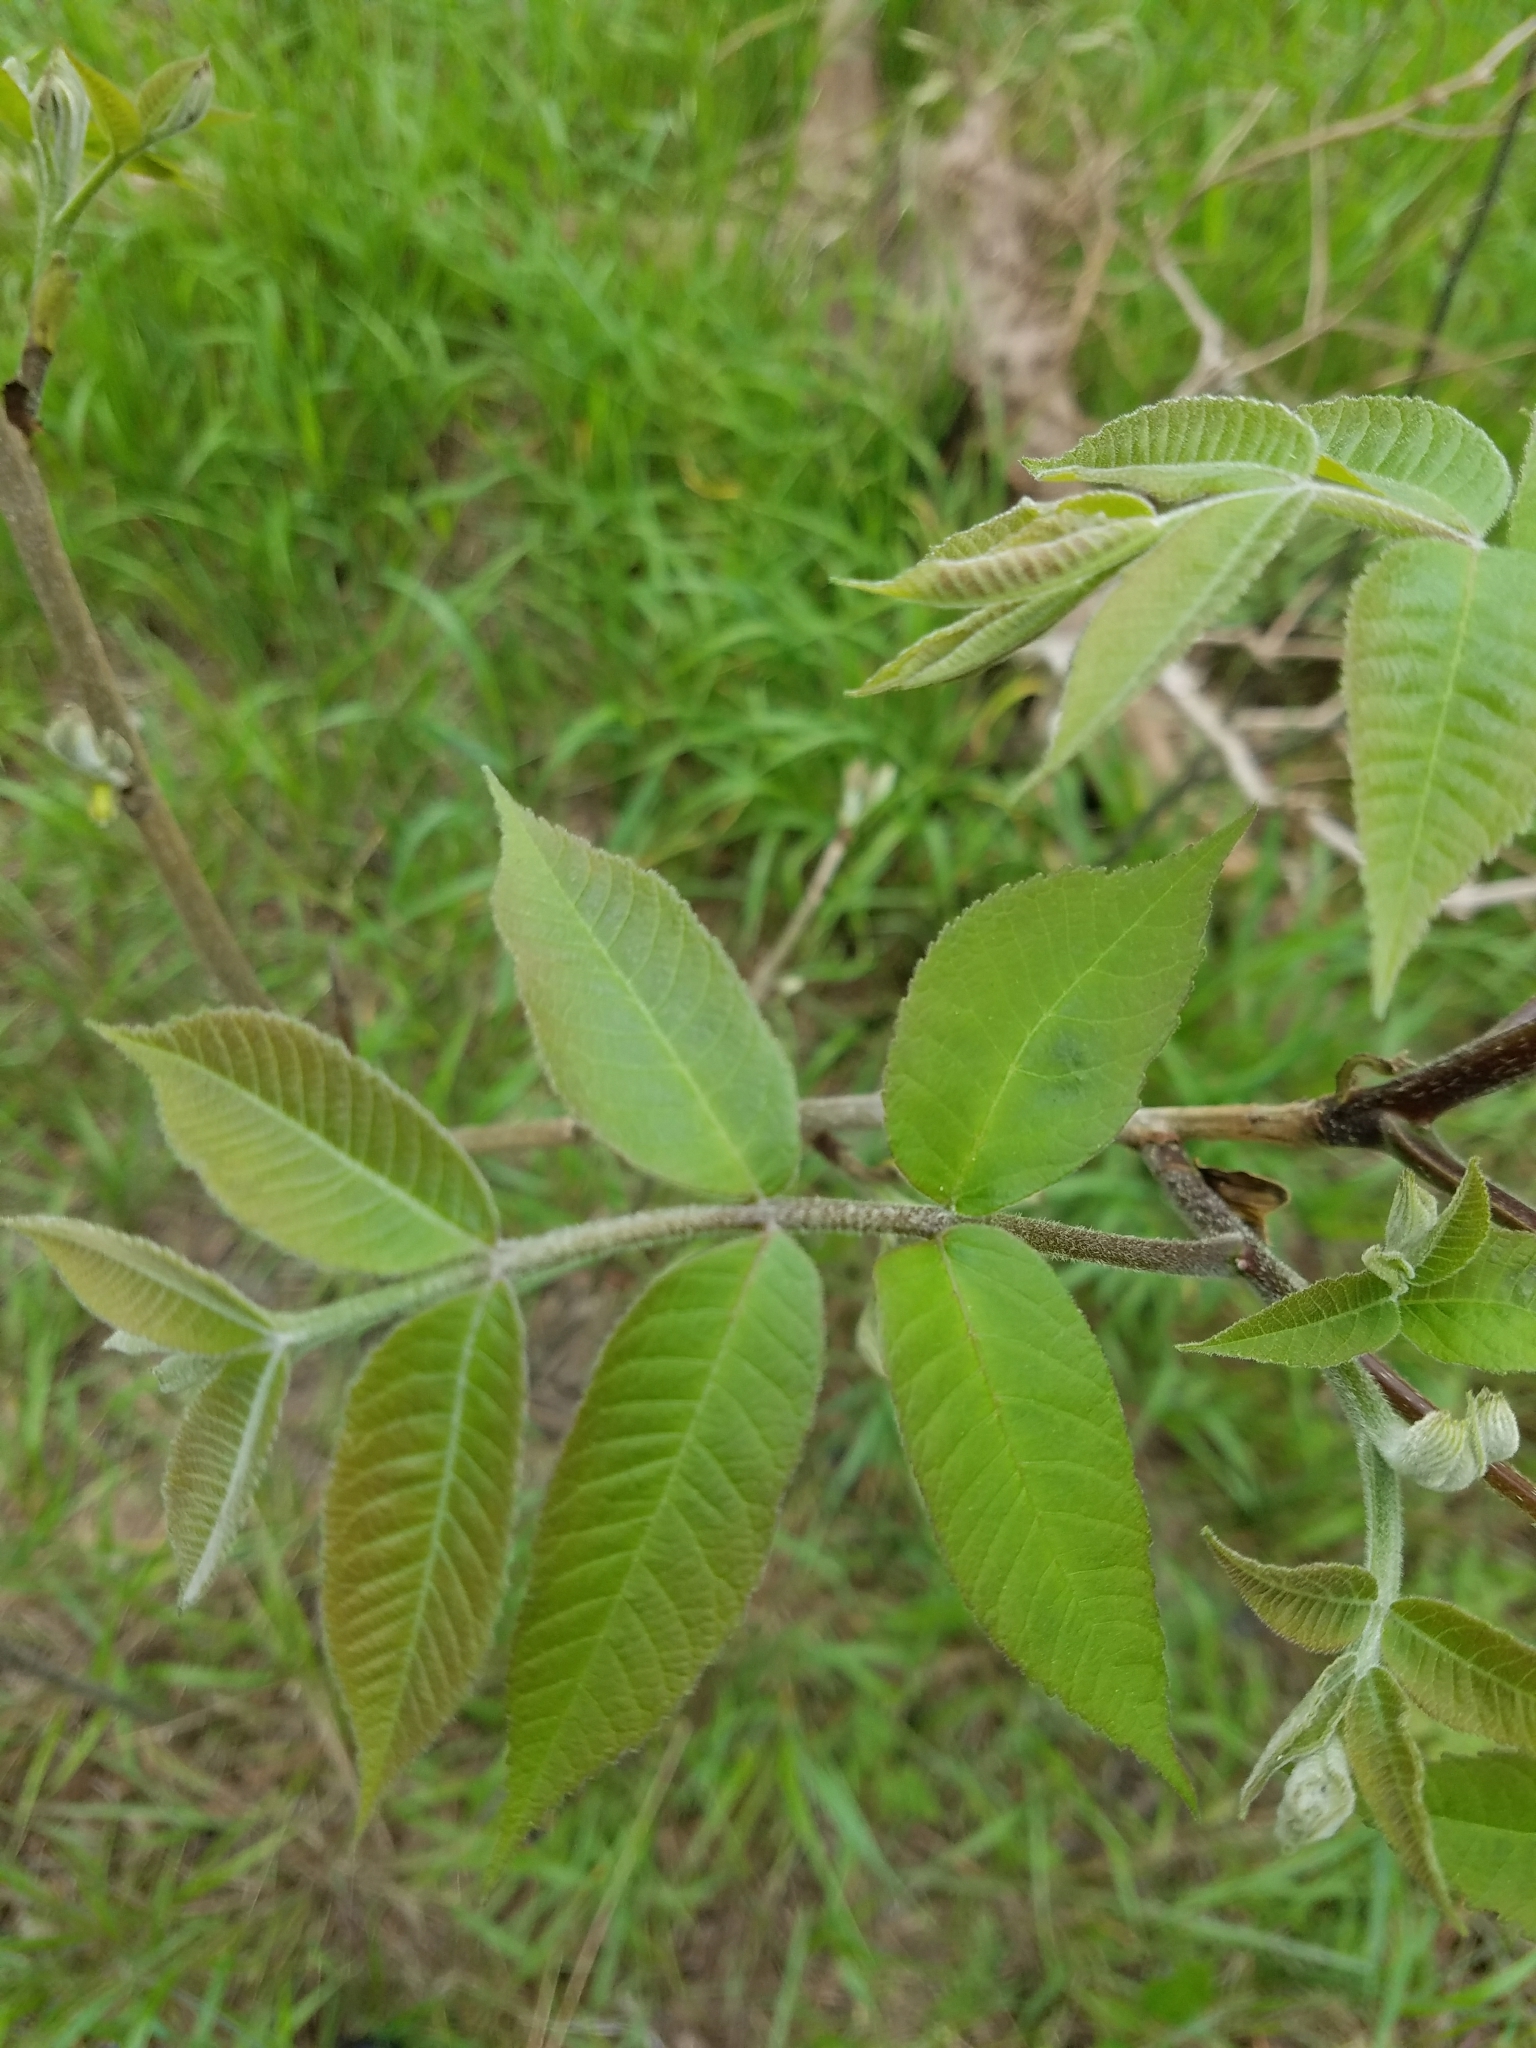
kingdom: Plantae
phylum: Tracheophyta
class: Magnoliopsida
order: Fagales
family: Juglandaceae
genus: Carya
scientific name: Carya illinoinensis
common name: Pecan
